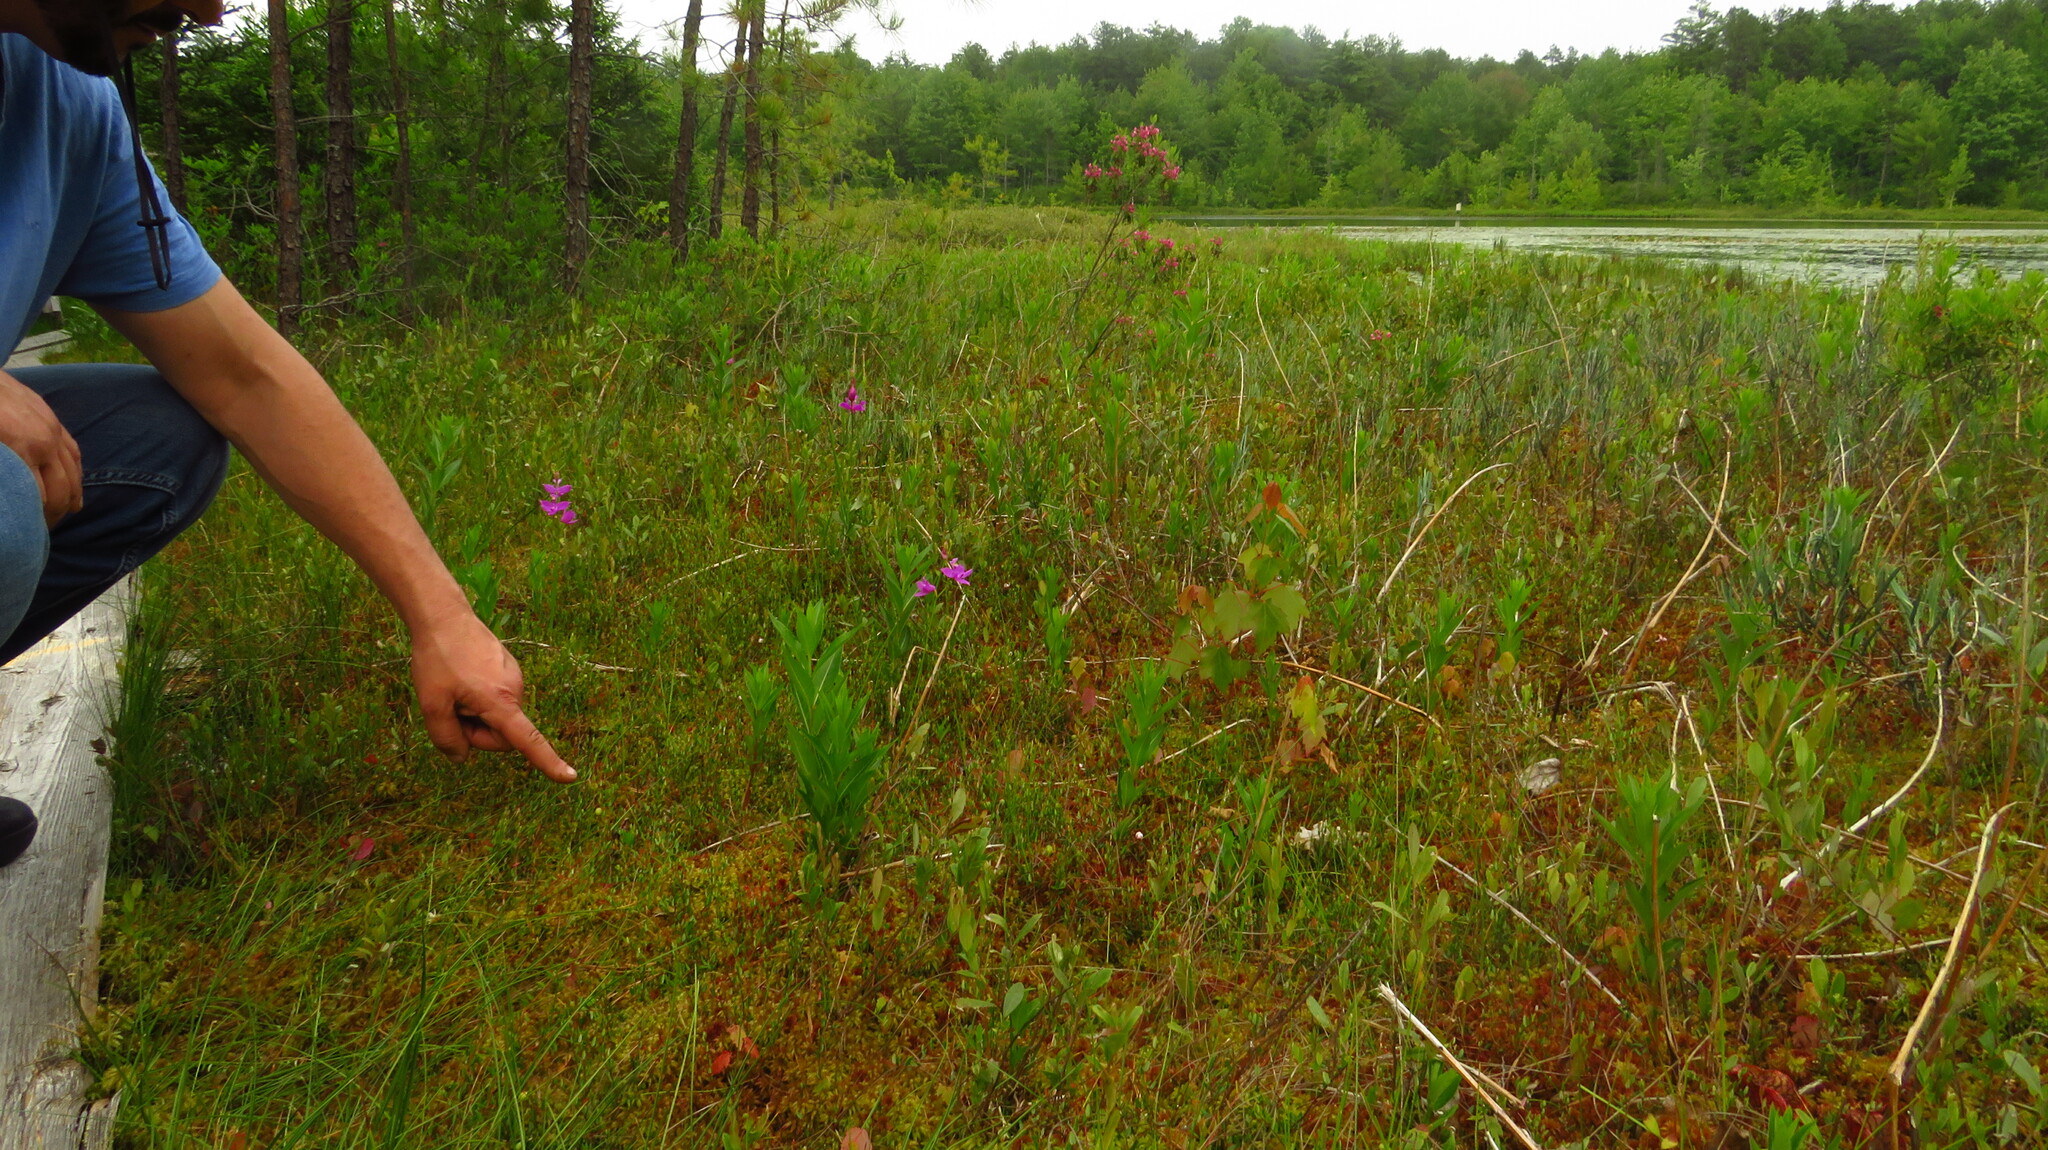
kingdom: Plantae
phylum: Tracheophyta
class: Liliopsida
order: Asparagales
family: Orchidaceae
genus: Calopogon
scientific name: Calopogon tuberosus
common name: Grass-pink
